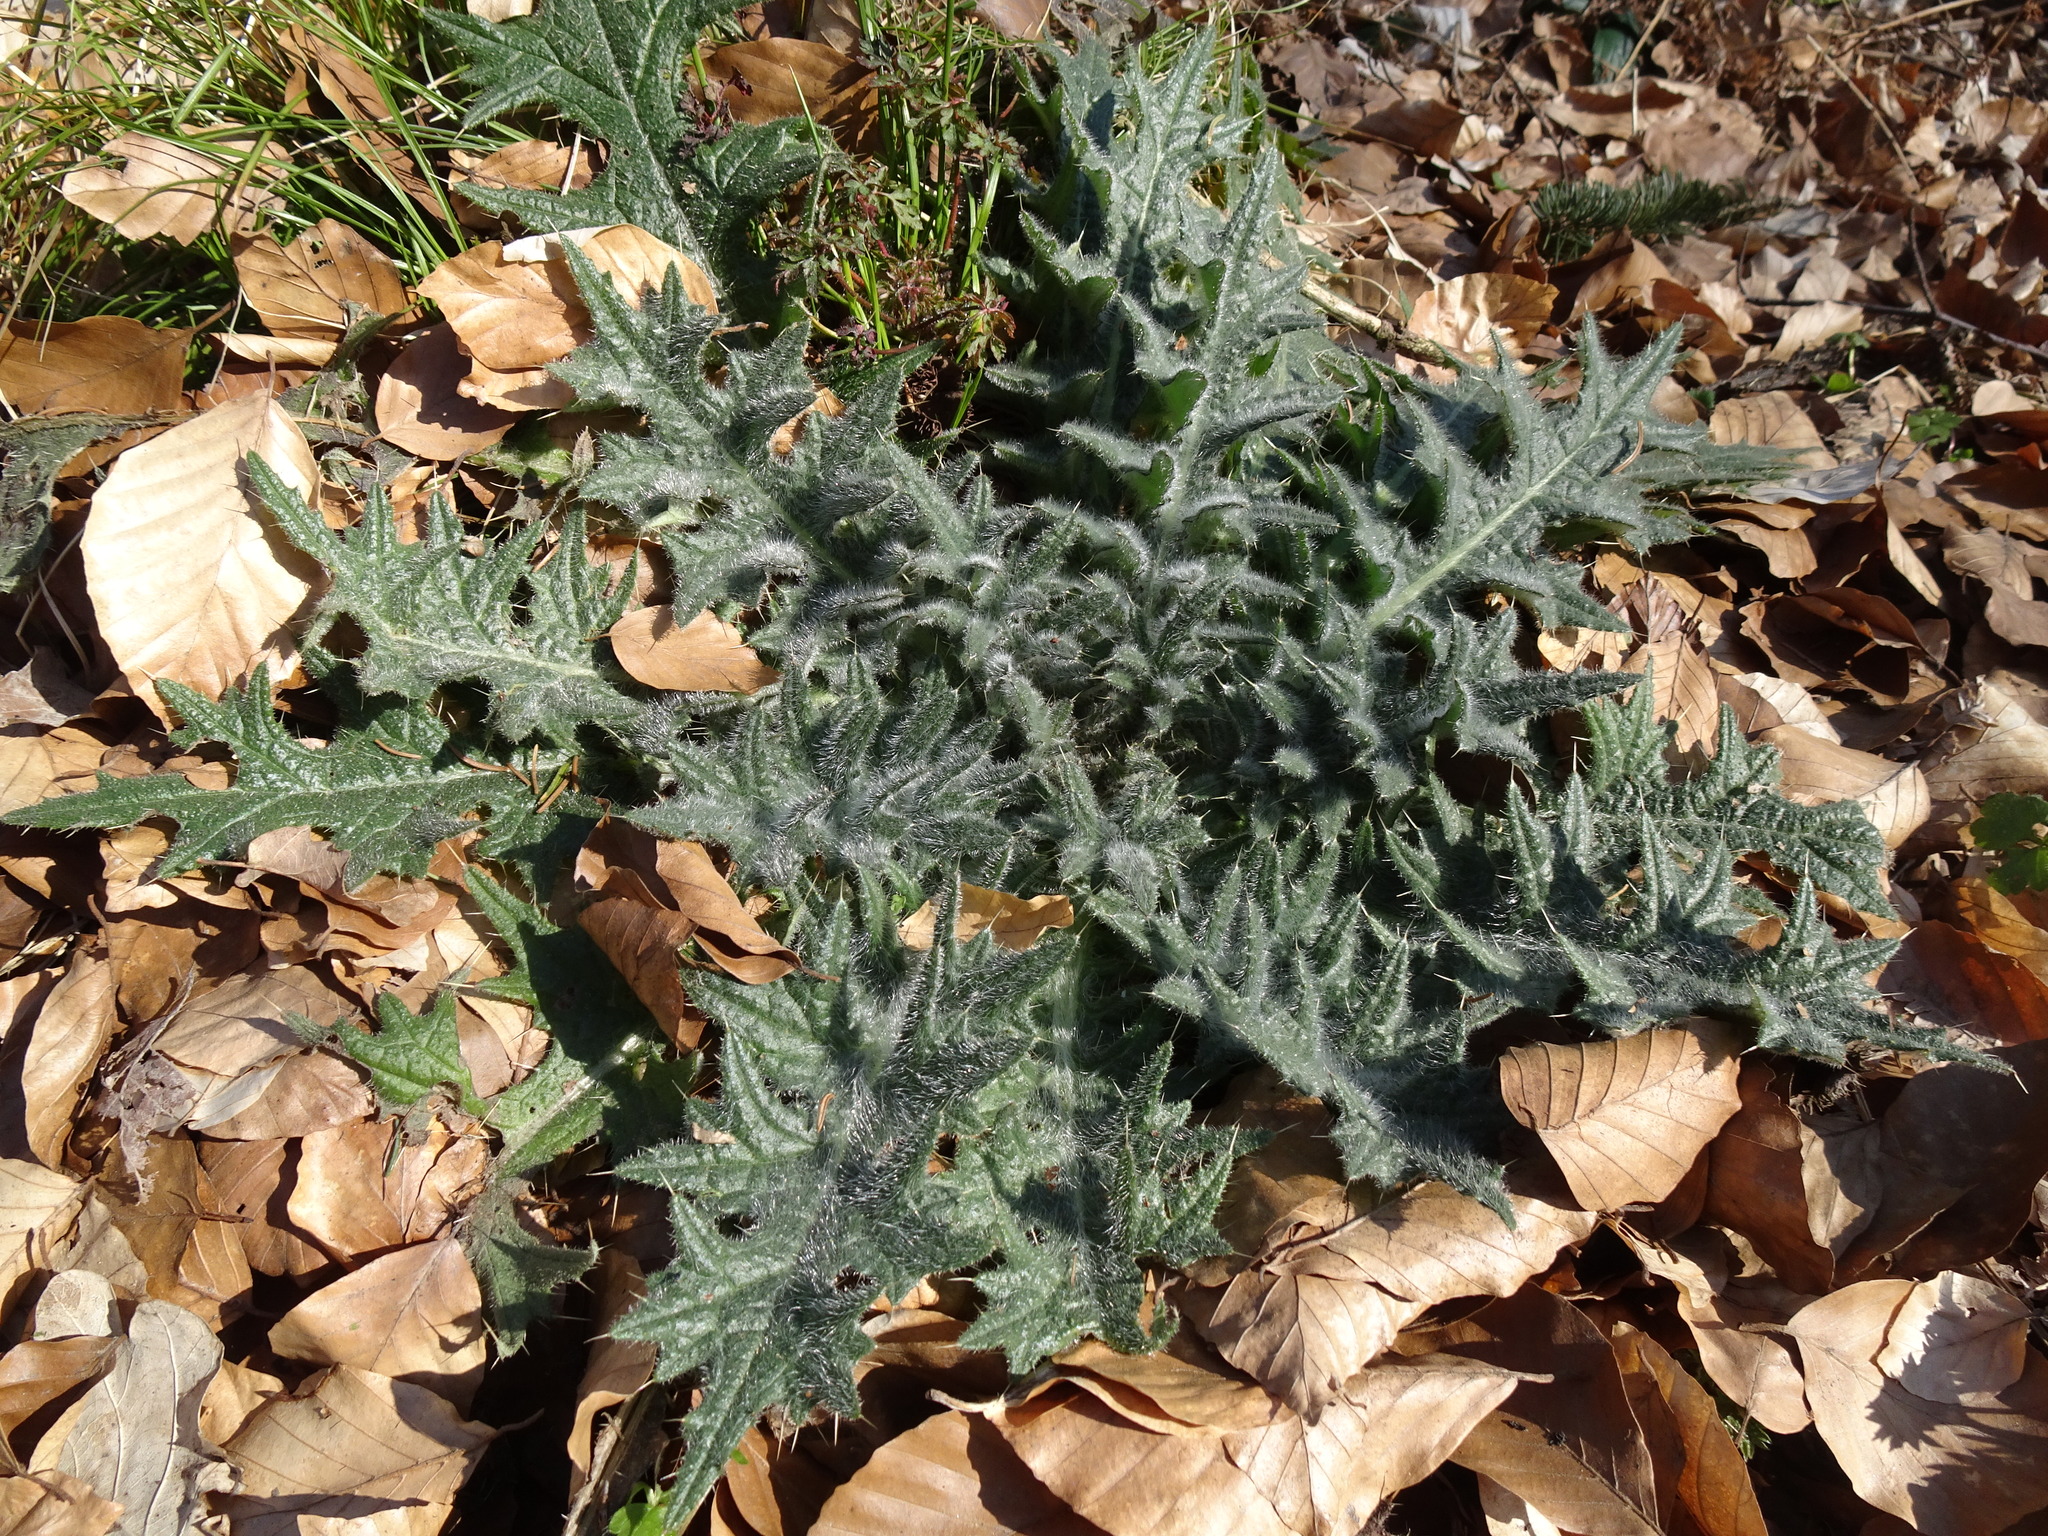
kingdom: Plantae
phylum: Tracheophyta
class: Magnoliopsida
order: Asterales
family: Asteraceae
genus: Cirsium
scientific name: Cirsium vulgare
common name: Bull thistle
